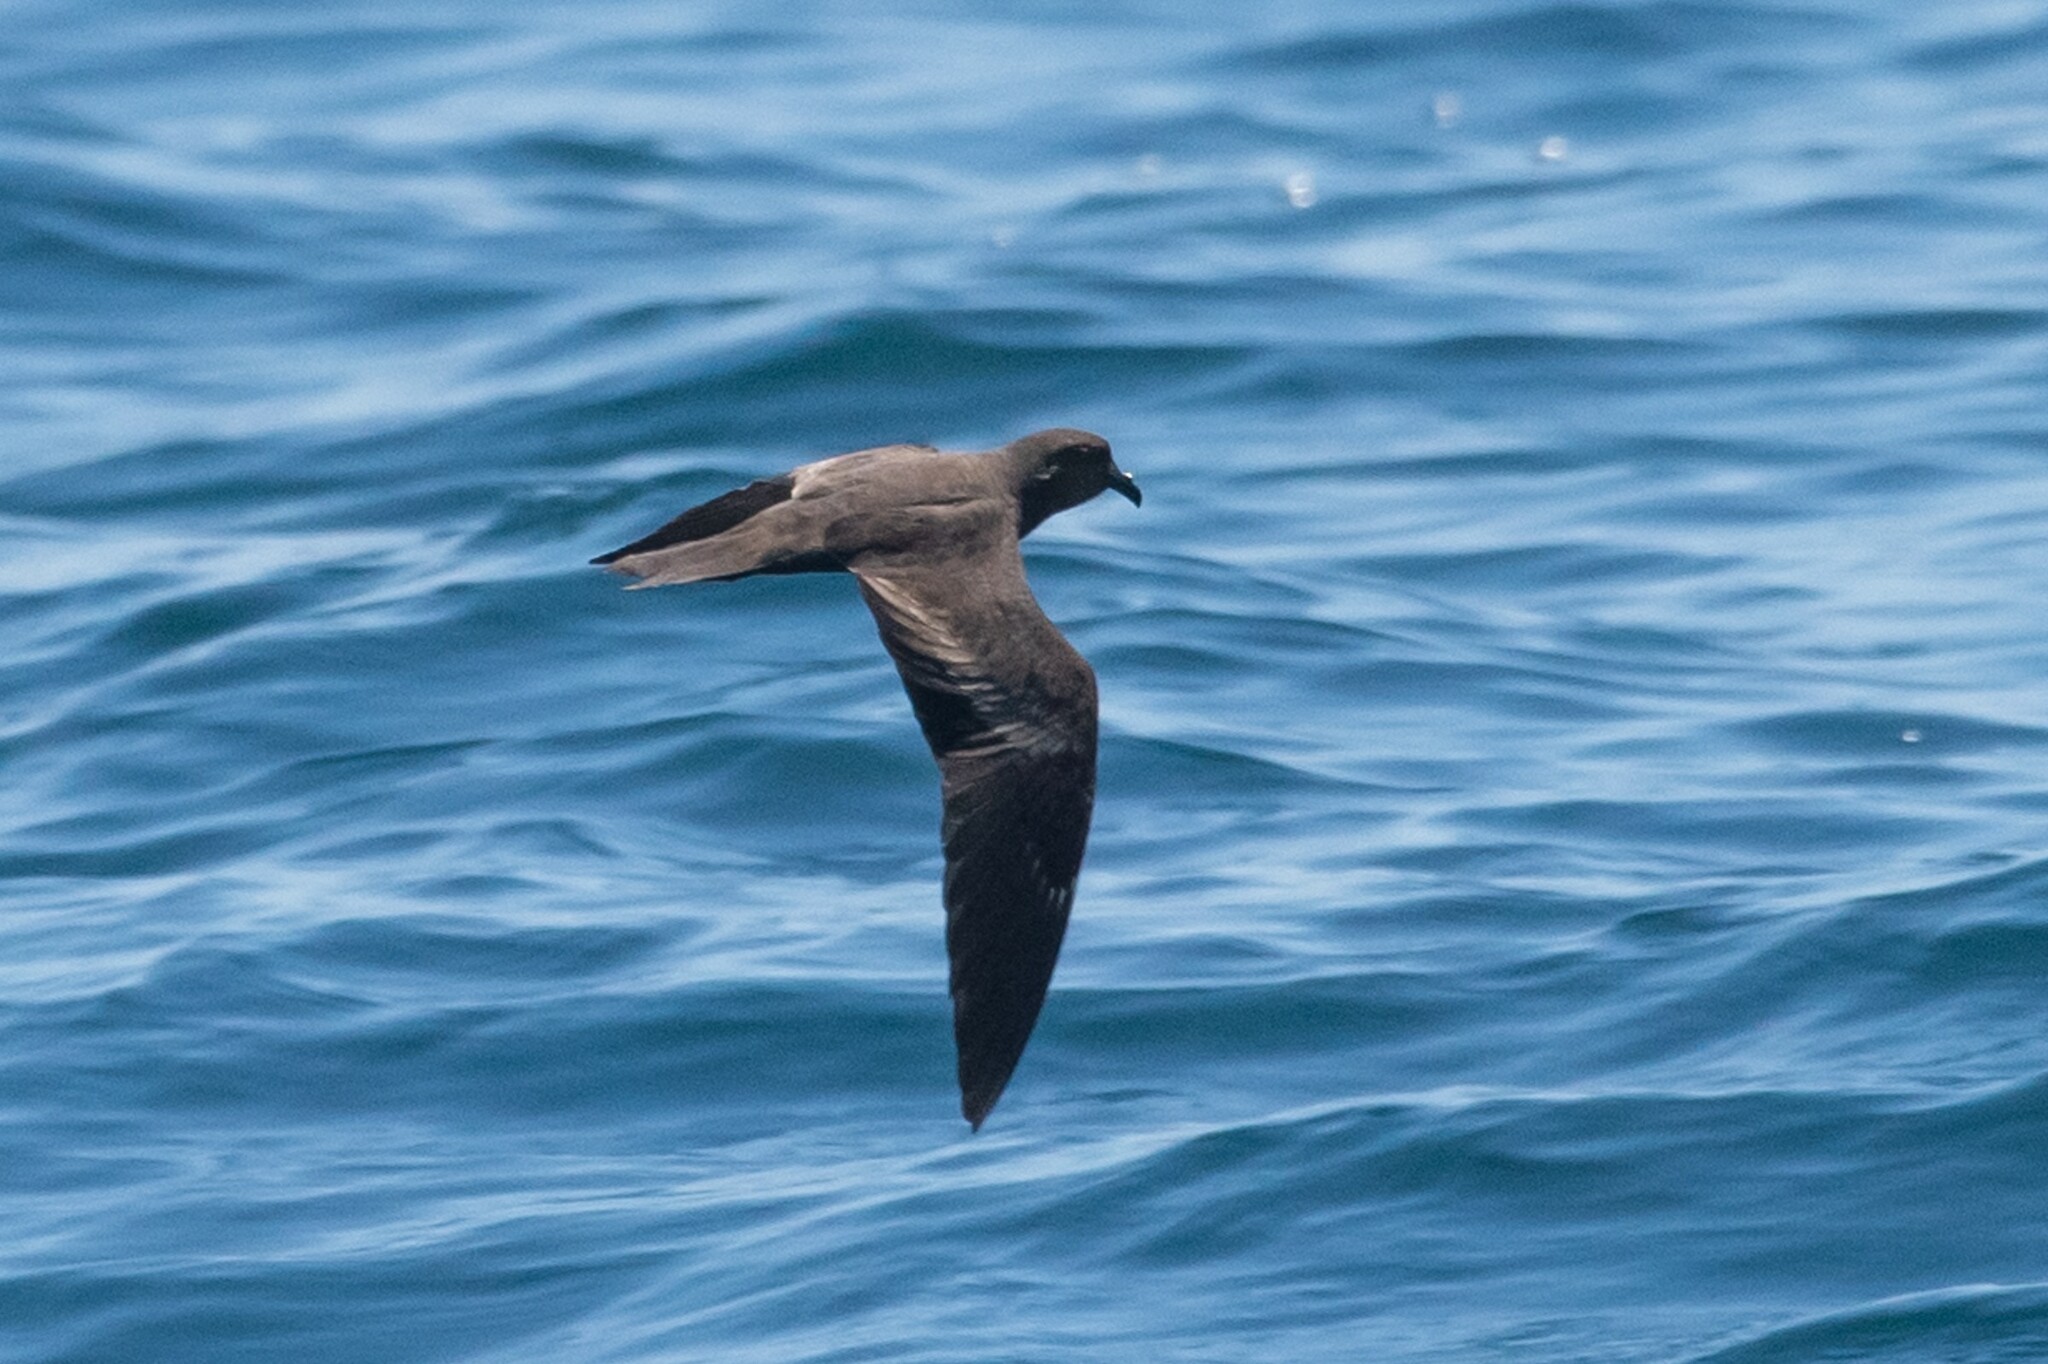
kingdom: Animalia
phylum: Chordata
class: Aves
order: Procellariiformes
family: Hydrobatidae
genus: Hydrobates
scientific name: Hydrobates melania
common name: Black storm petrel
